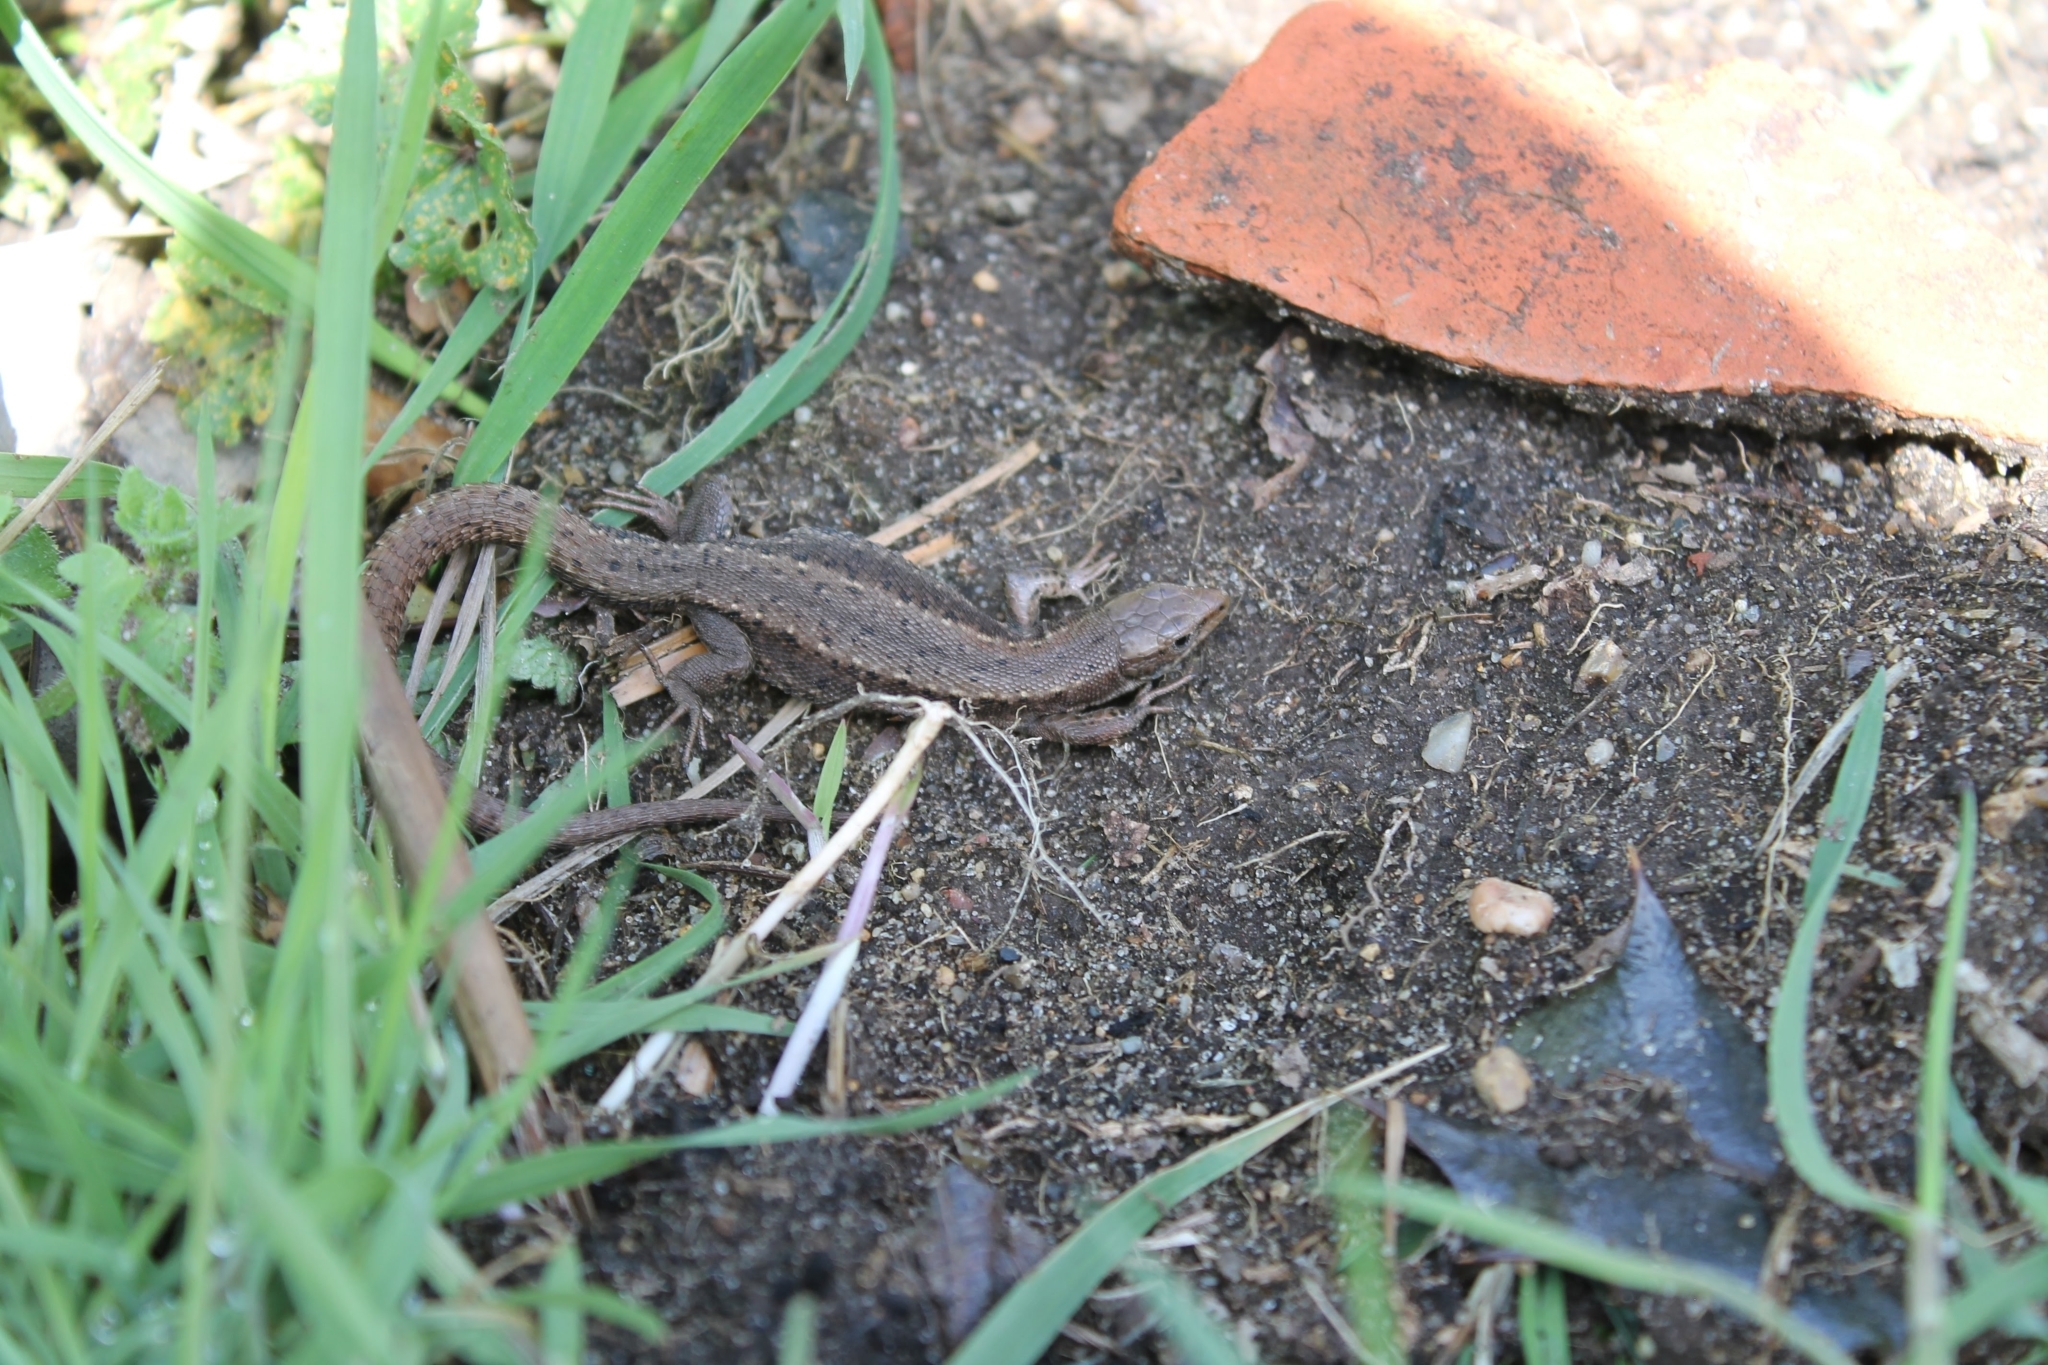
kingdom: Animalia
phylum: Chordata
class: Squamata
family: Lacertidae
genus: Zootoca
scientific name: Zootoca vivipara
